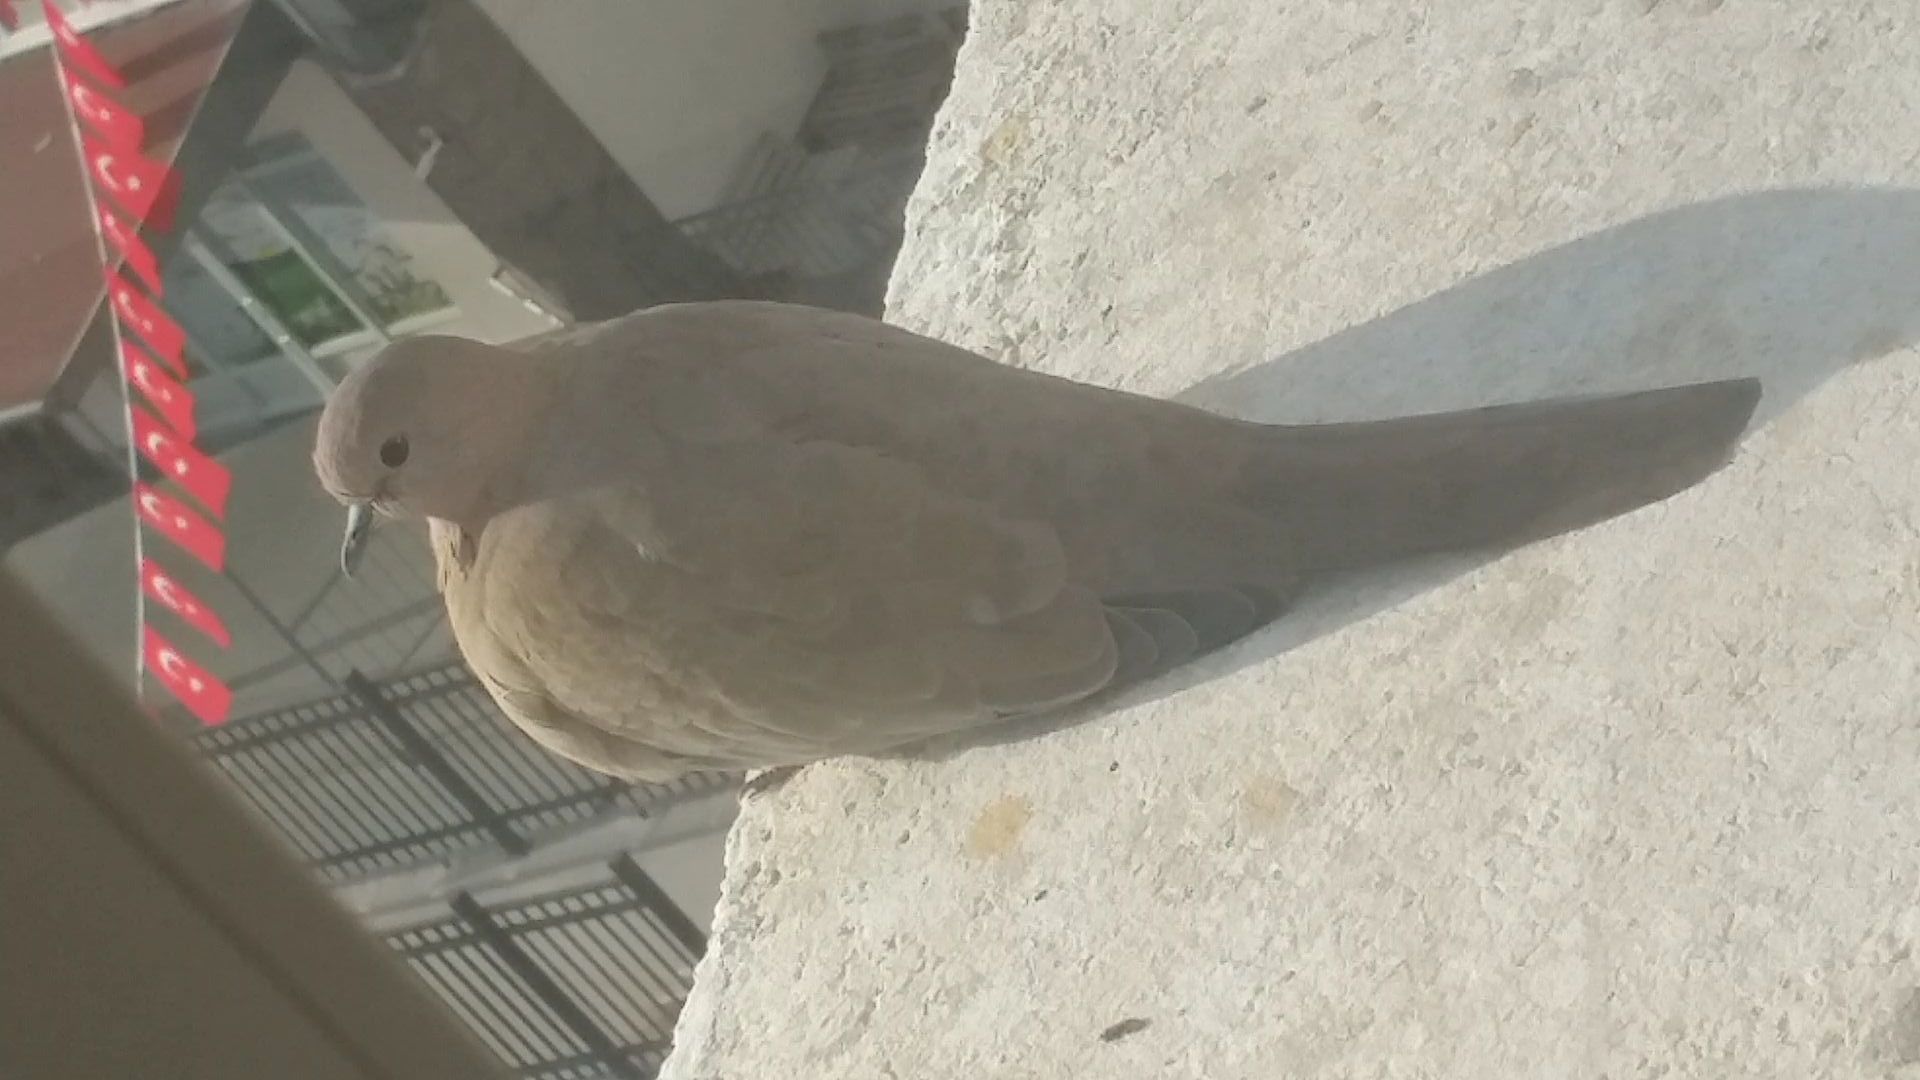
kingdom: Animalia
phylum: Chordata
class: Aves
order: Columbiformes
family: Columbidae
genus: Spilopelia
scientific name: Spilopelia senegalensis
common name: Laughing dove
